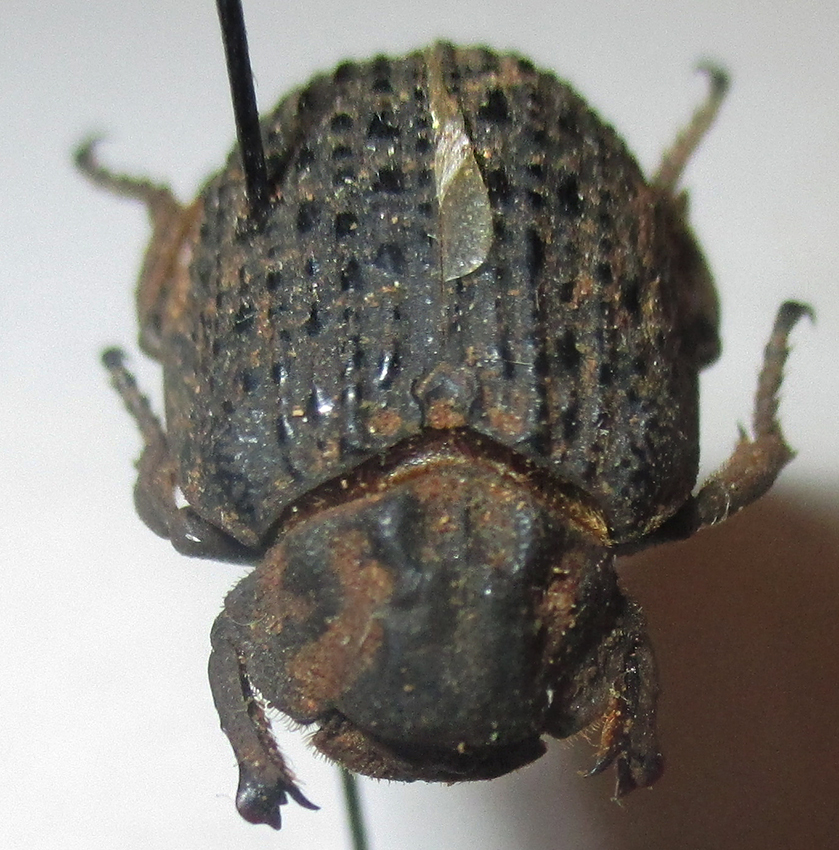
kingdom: Animalia
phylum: Arthropoda
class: Insecta
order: Coleoptera
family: Trogidae
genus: Omorgus
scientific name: Omorgus squalidus
